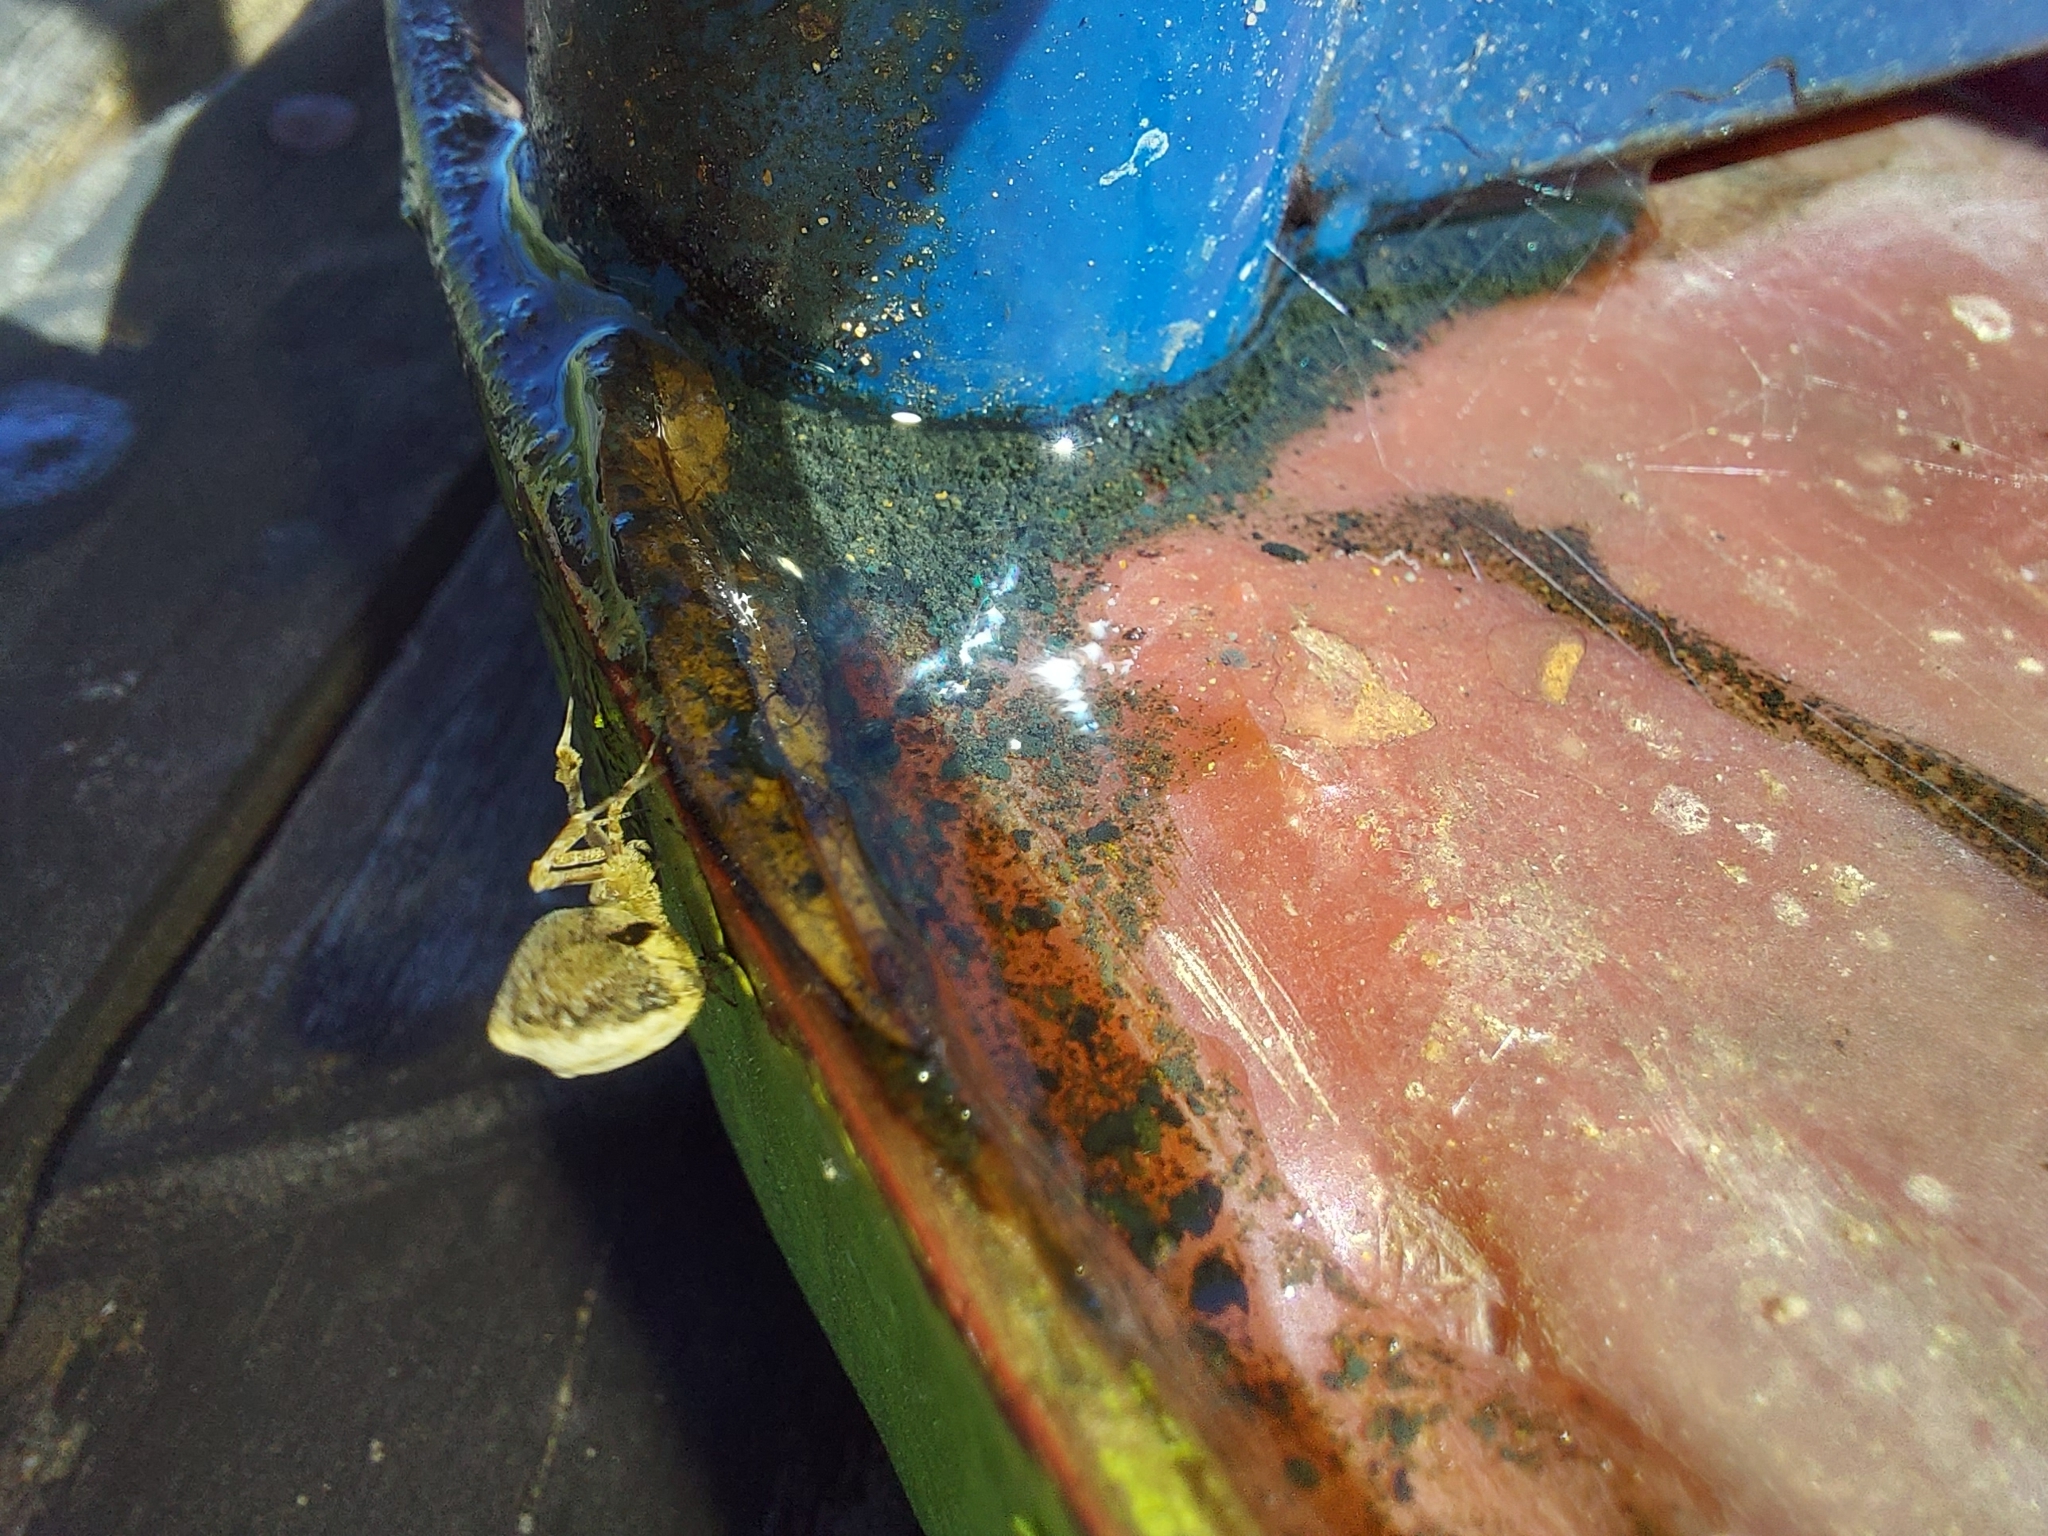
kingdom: Animalia
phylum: Arthropoda
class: Arachnida
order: Araneae
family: Uloboridae
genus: Uloborus
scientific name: Uloborus plumipes
